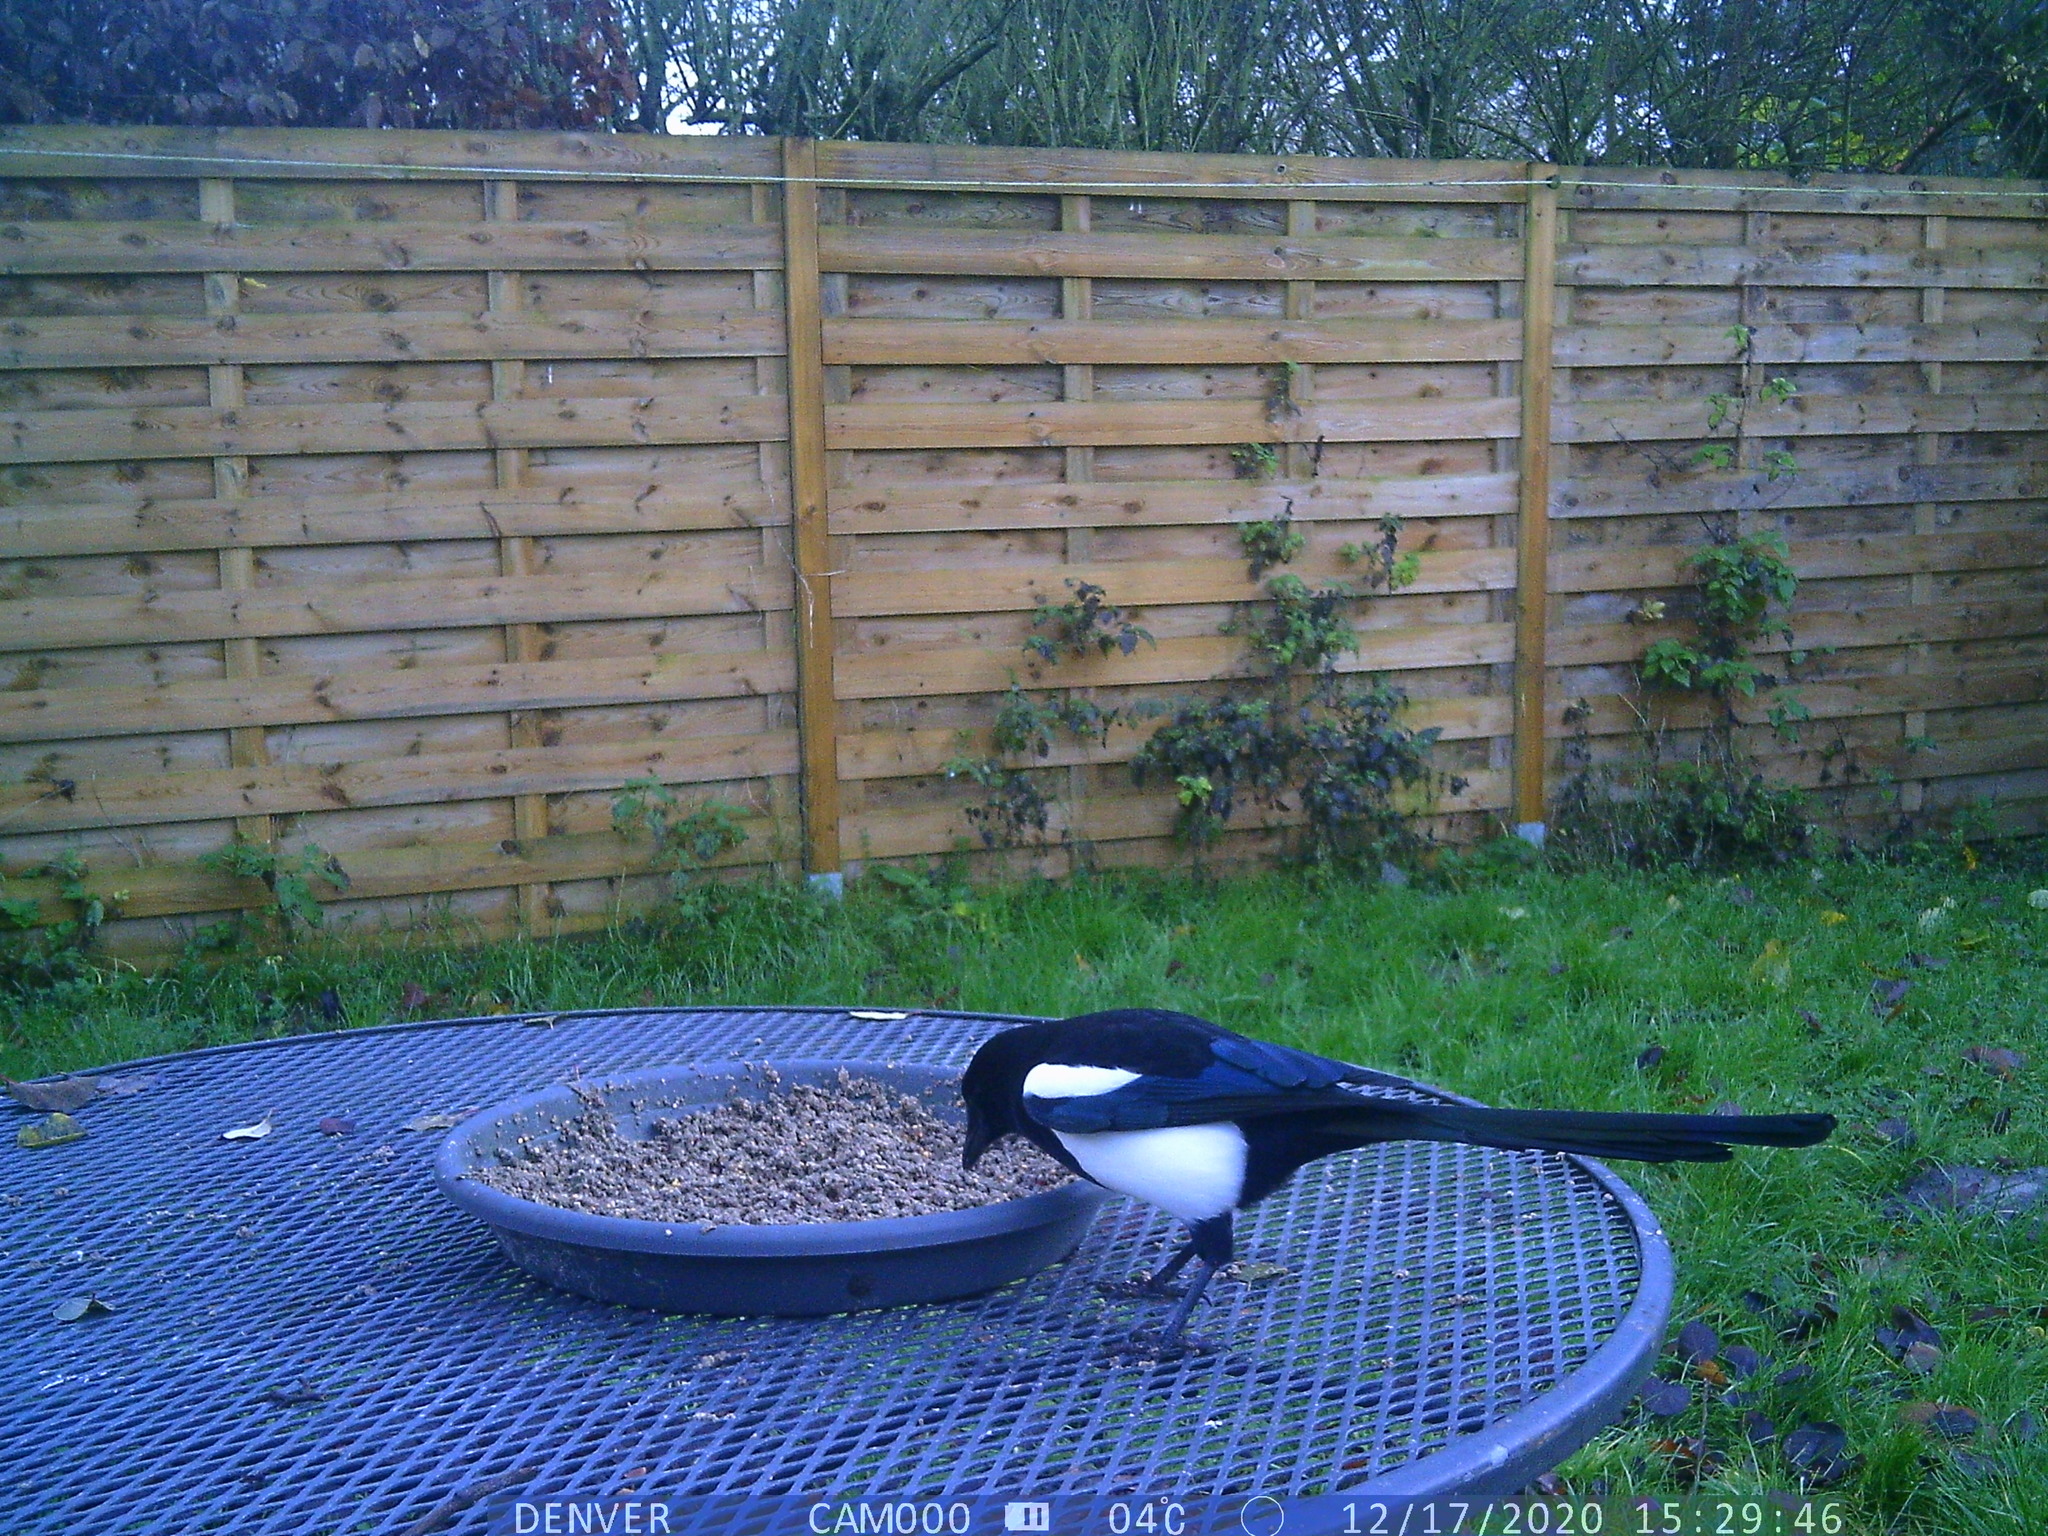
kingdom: Animalia
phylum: Chordata
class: Aves
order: Passeriformes
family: Corvidae
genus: Pica
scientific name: Pica pica
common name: Eurasian magpie
